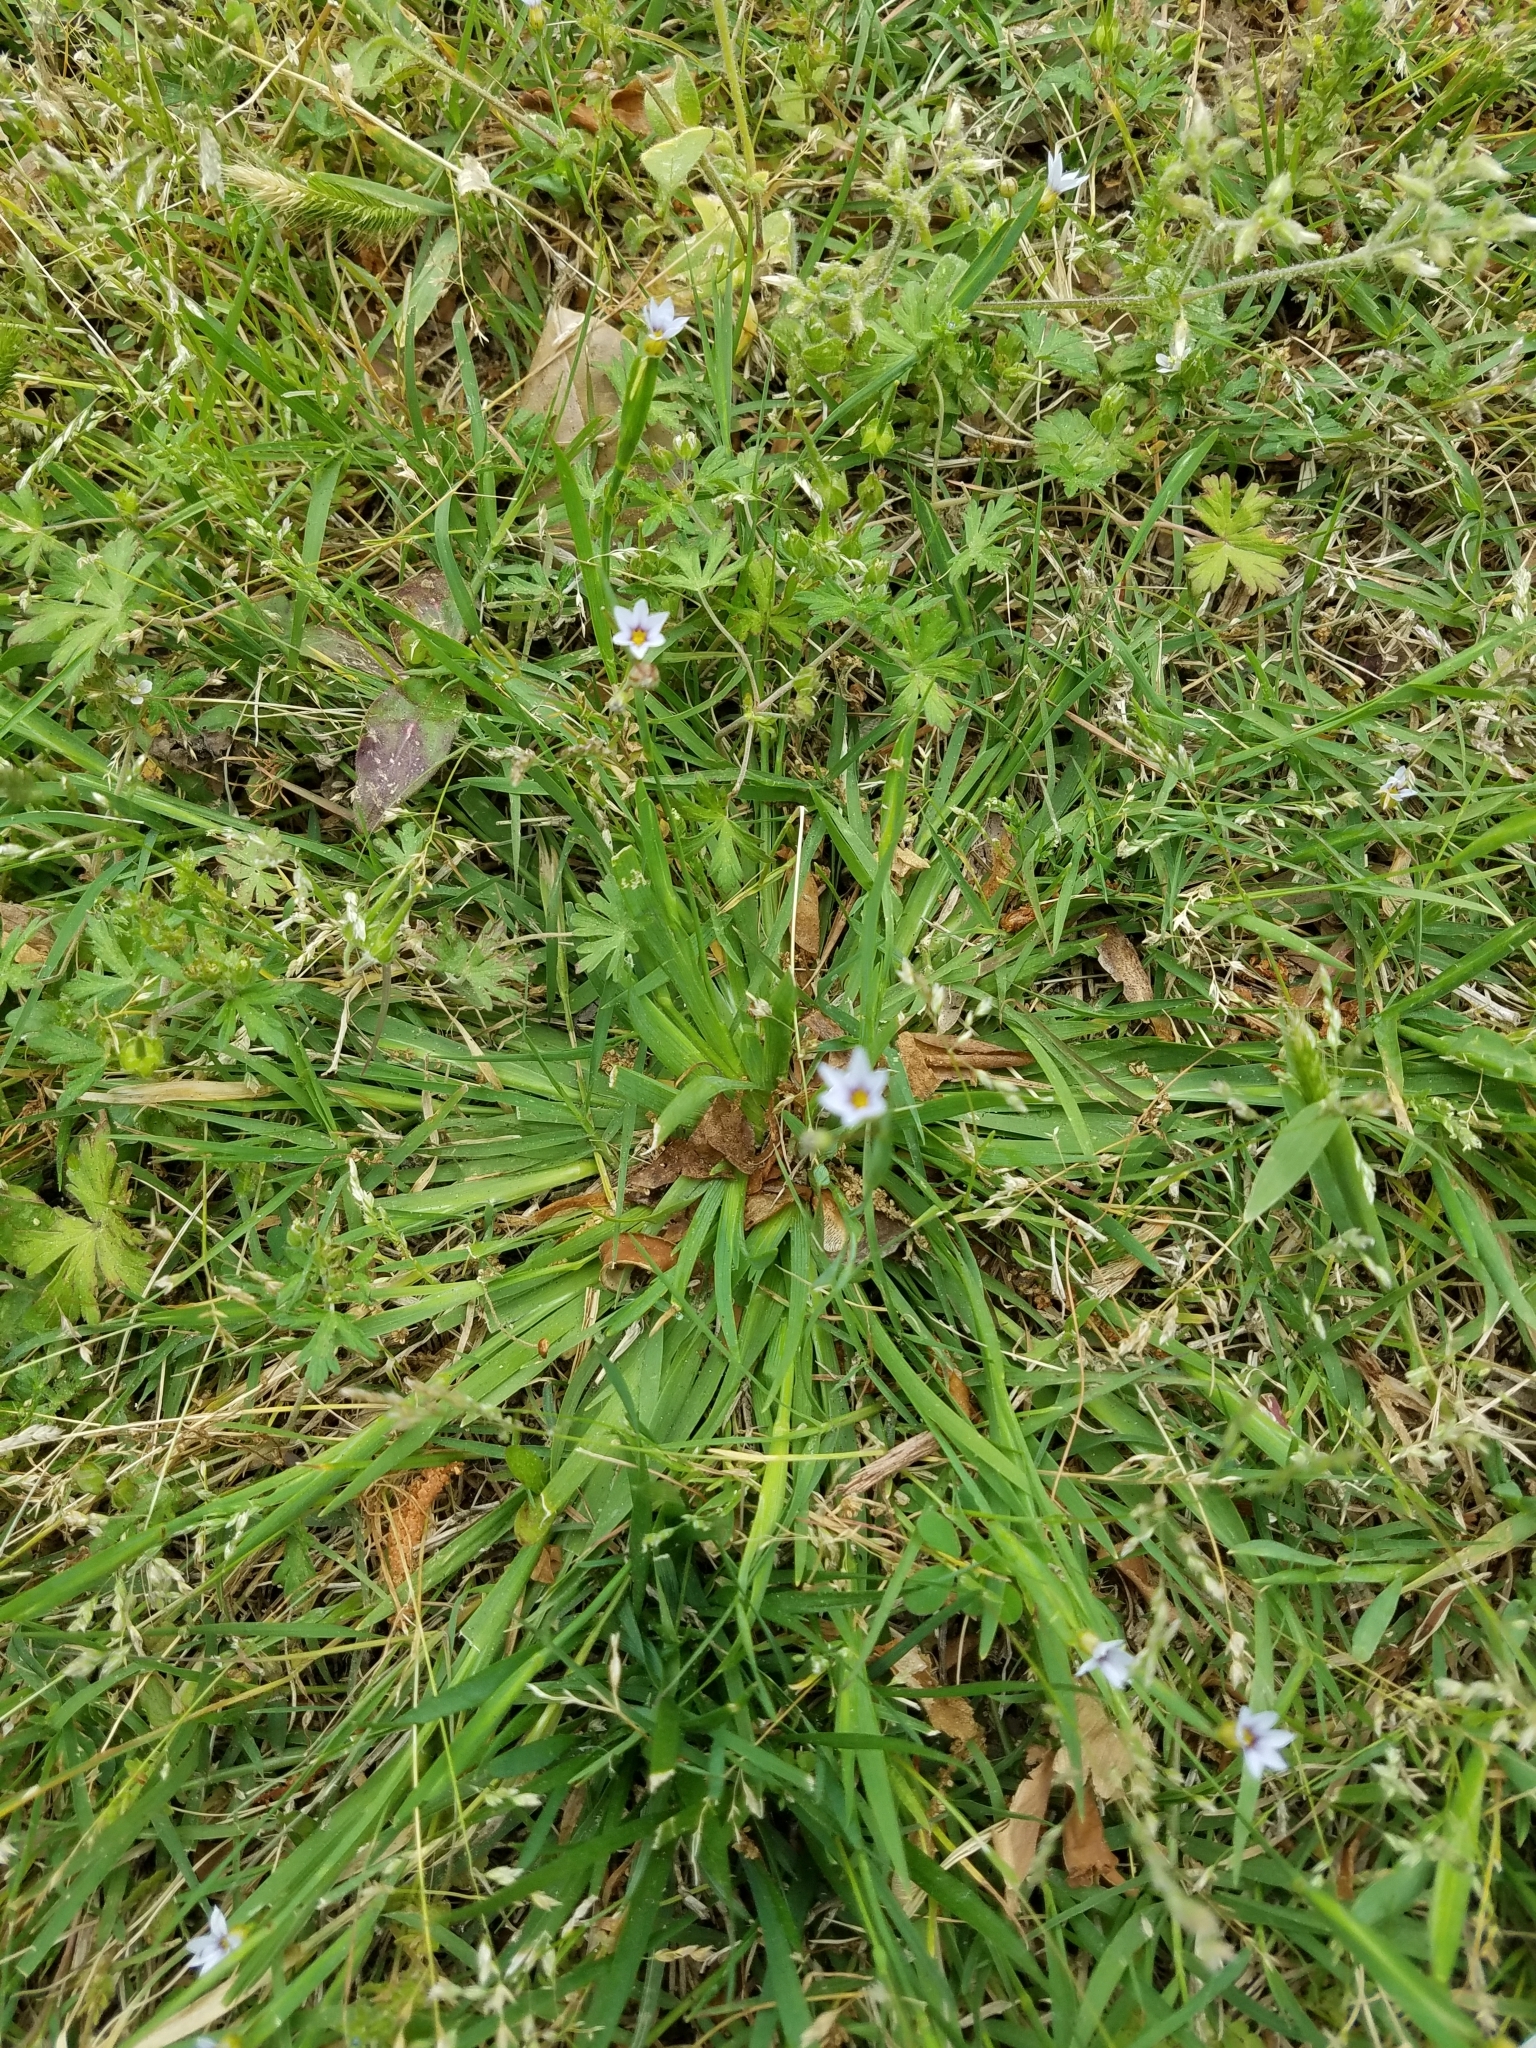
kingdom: Plantae
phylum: Tracheophyta
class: Liliopsida
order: Asparagales
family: Iridaceae
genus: Sisyrinchium
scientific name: Sisyrinchium micranthum
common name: Bermuda pigroot
